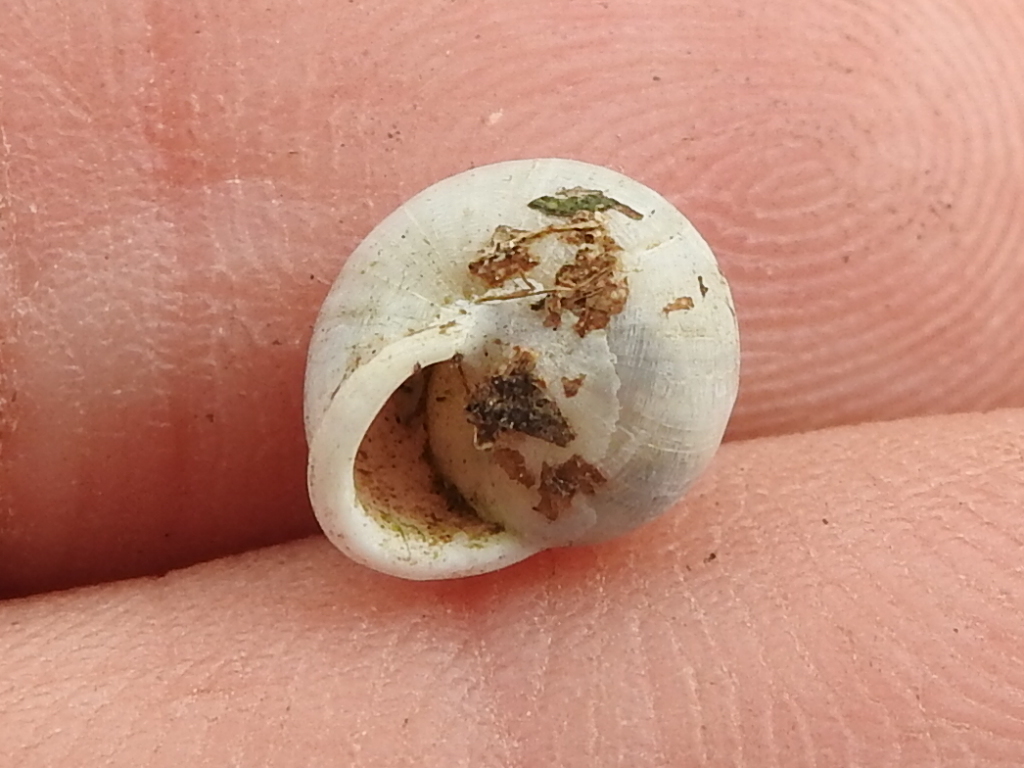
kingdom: Animalia
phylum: Mollusca
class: Gastropoda
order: Cycloneritida
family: Helicinidae
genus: Helicina
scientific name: Helicina orbiculata
